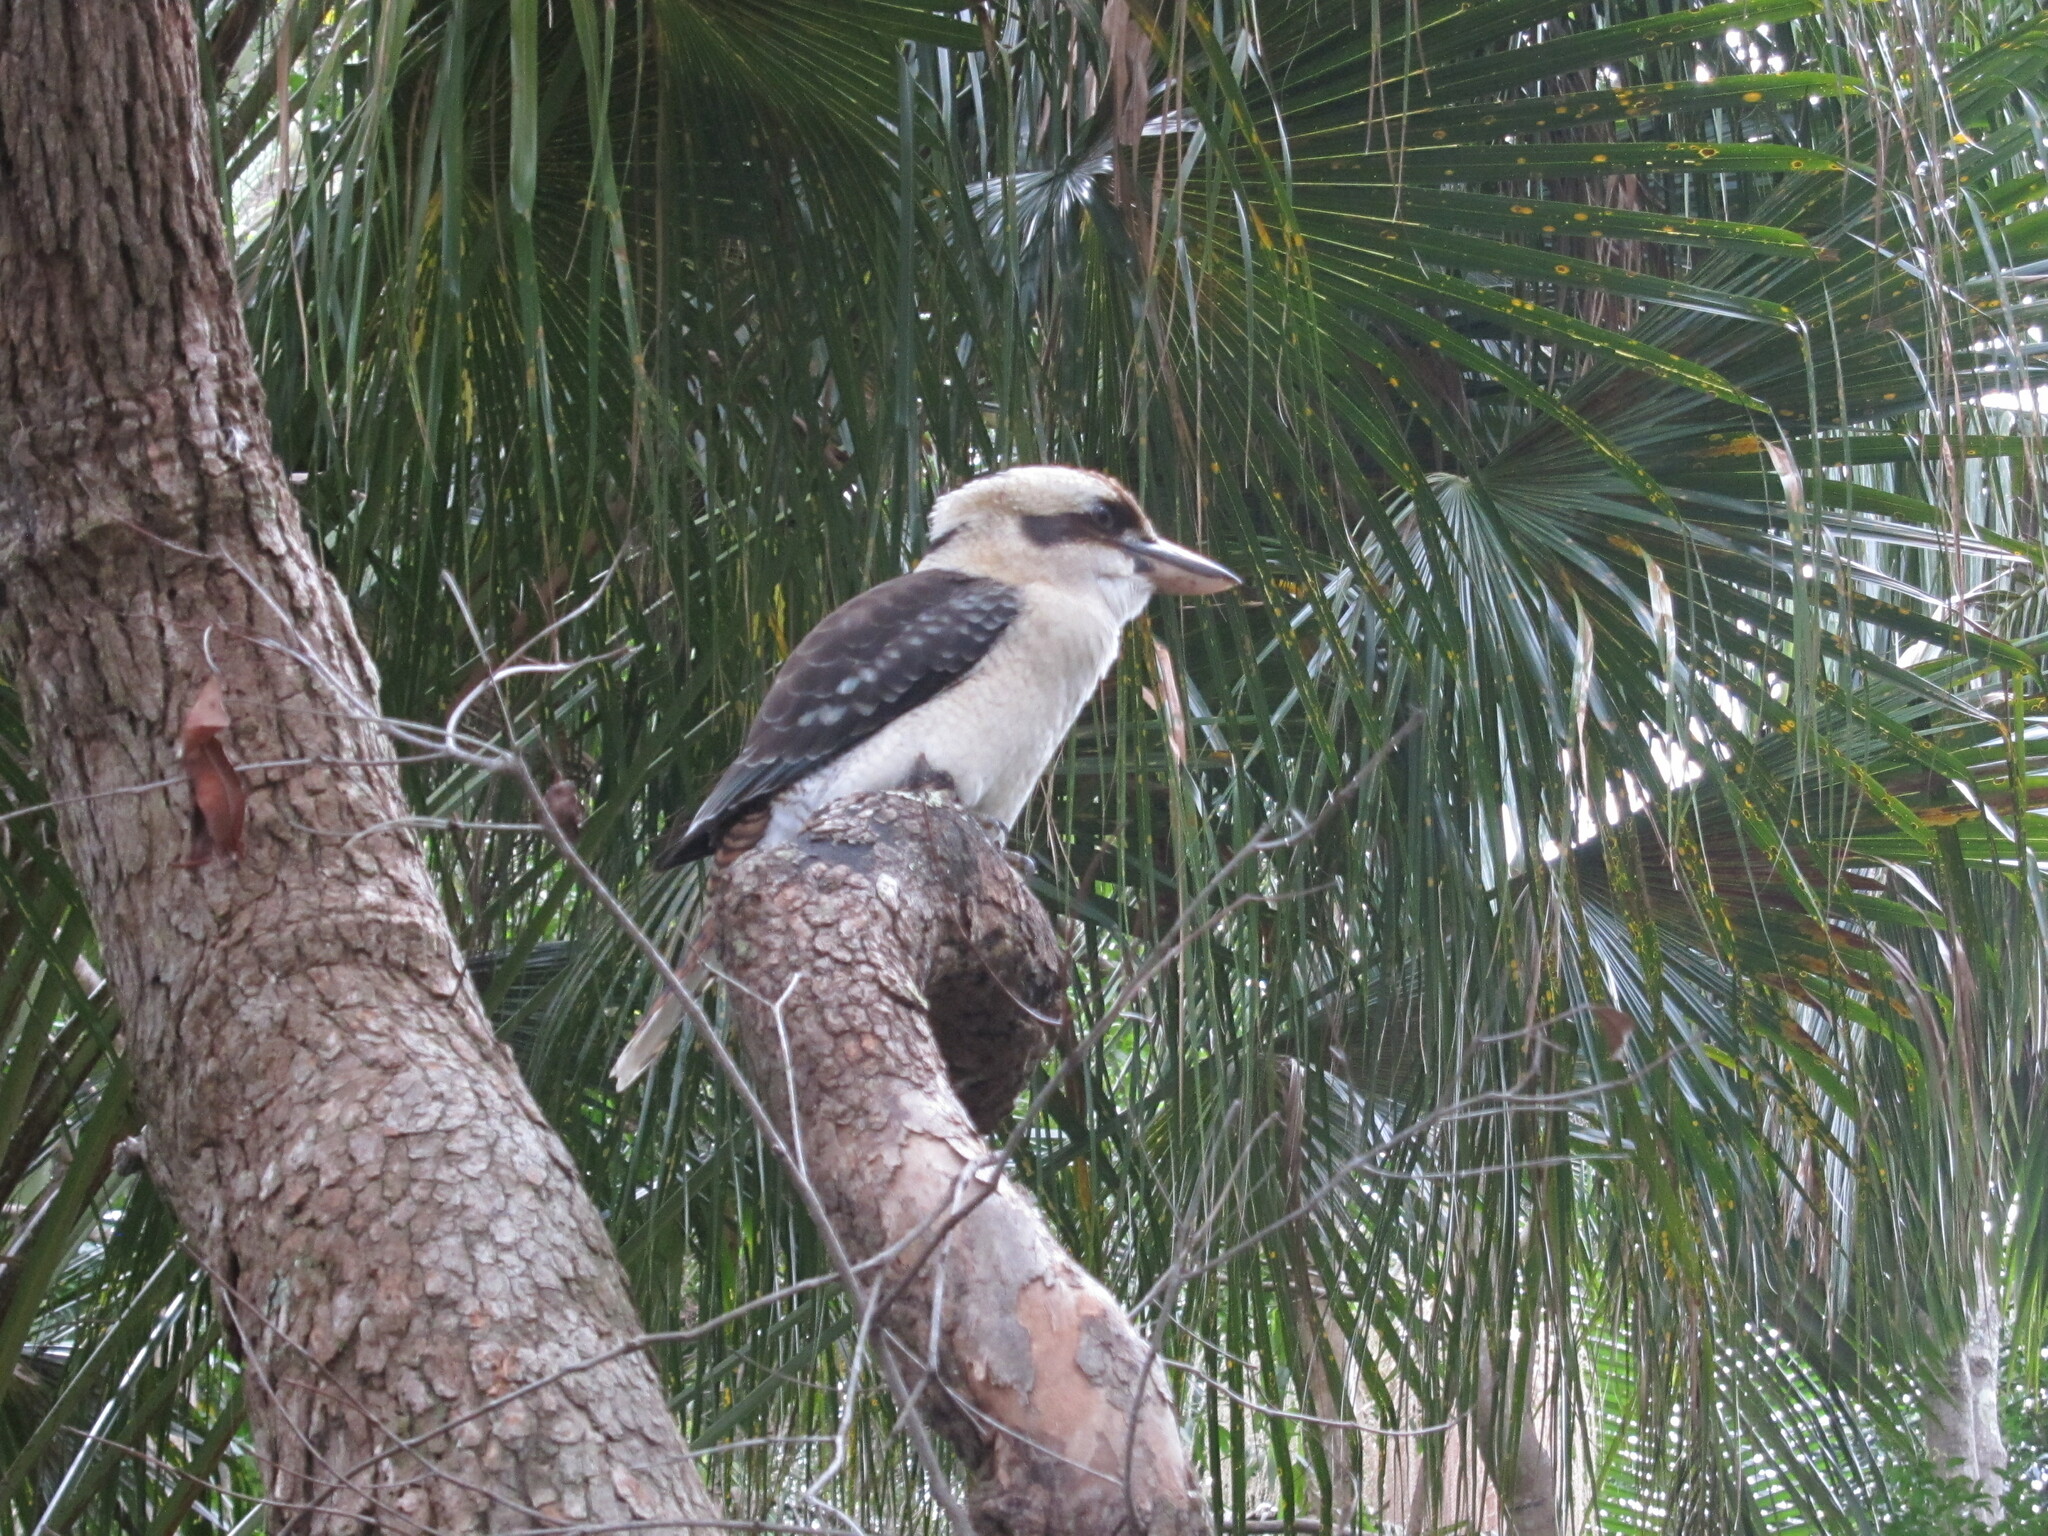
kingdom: Animalia
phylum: Chordata
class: Aves
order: Coraciiformes
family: Alcedinidae
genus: Dacelo
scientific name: Dacelo novaeguineae
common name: Laughing kookaburra
